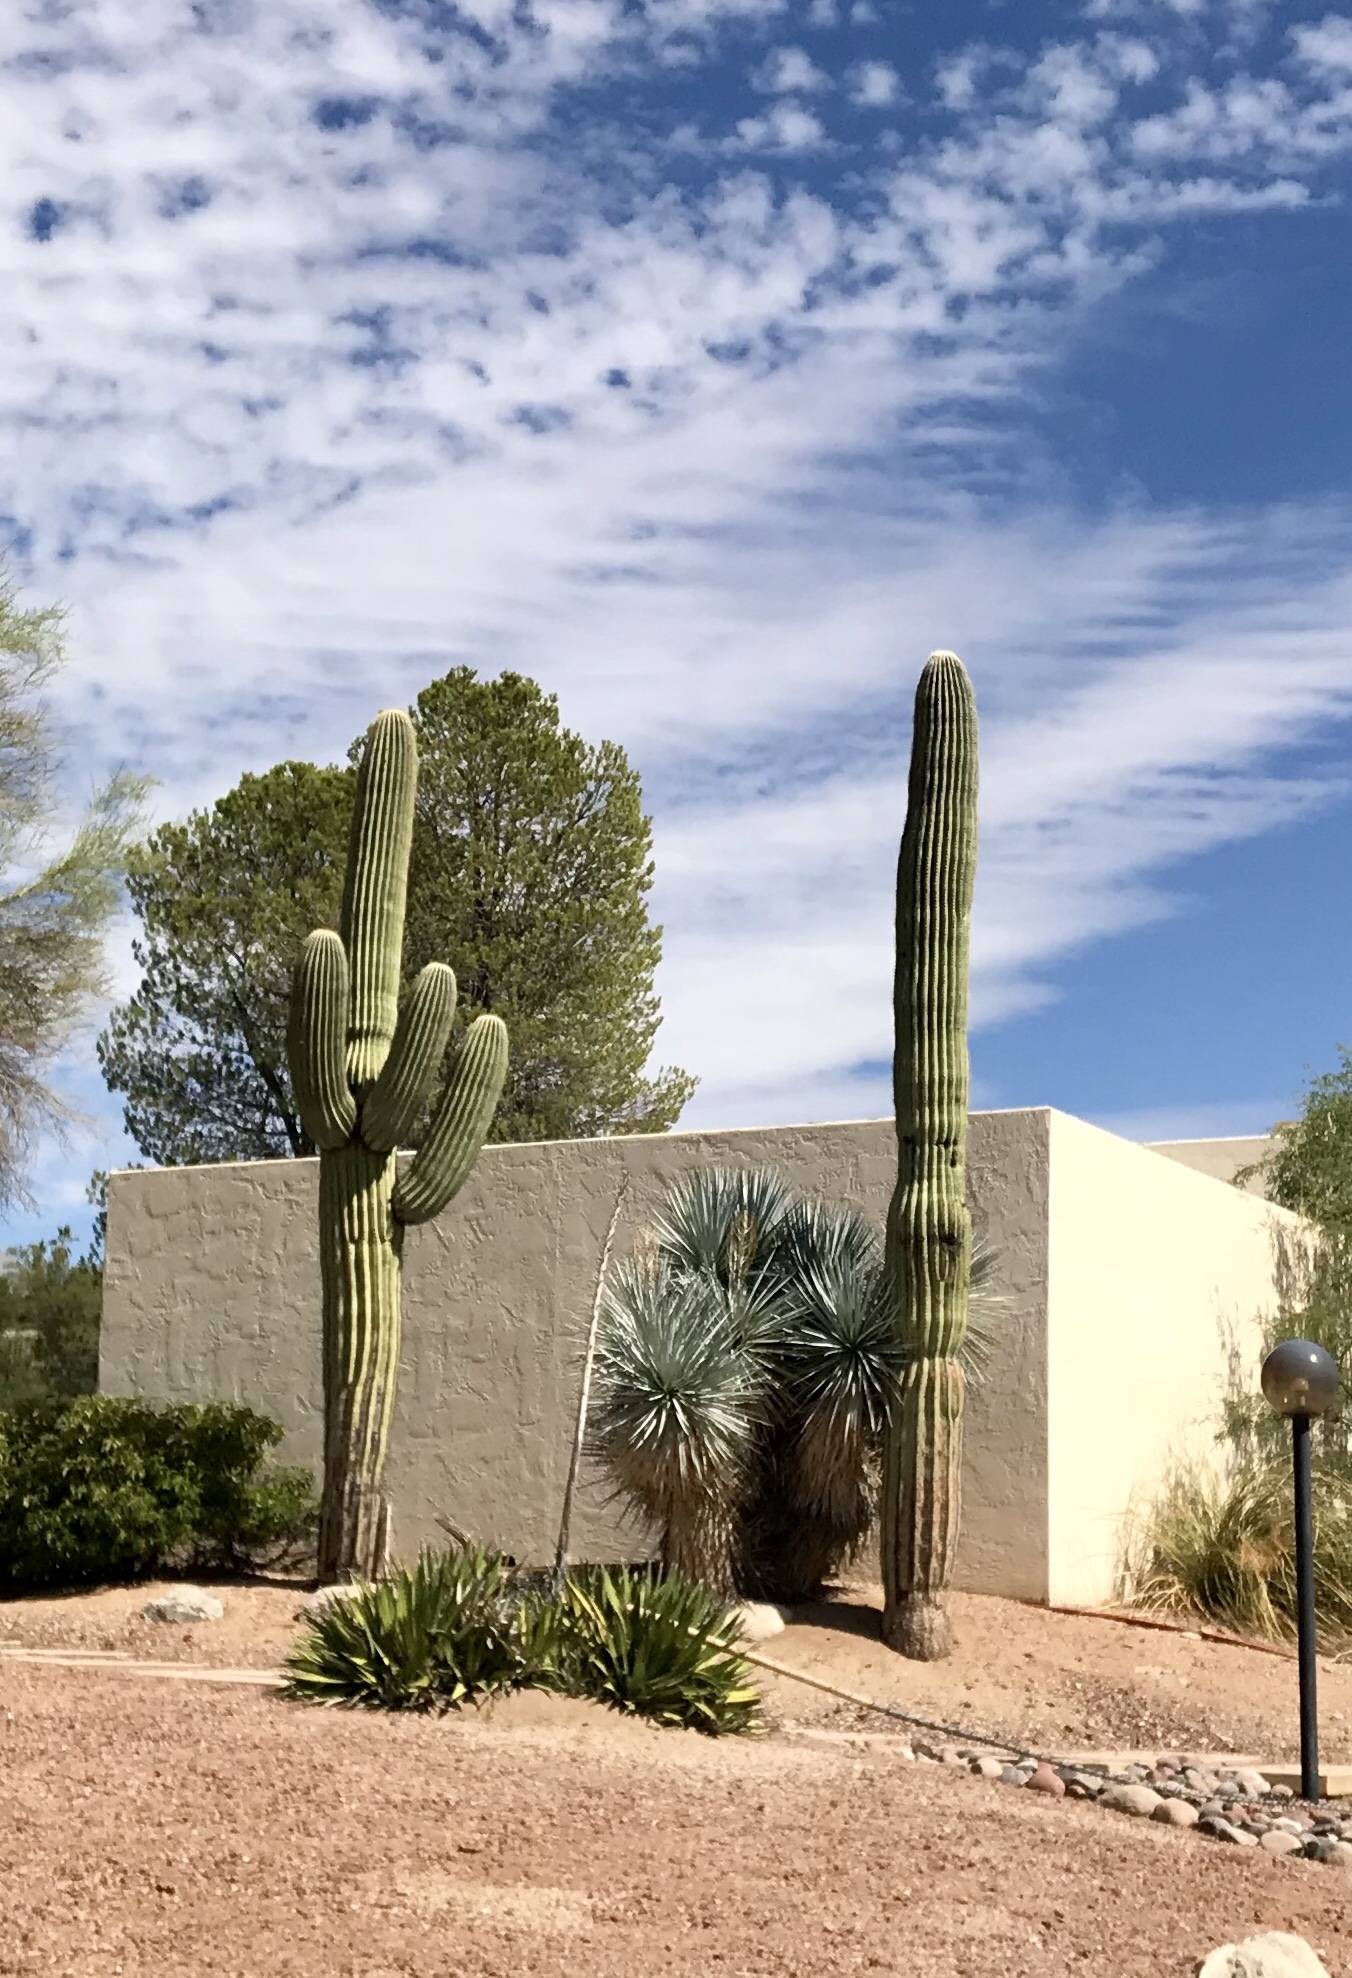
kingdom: Plantae
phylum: Tracheophyta
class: Magnoliopsida
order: Caryophyllales
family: Cactaceae
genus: Carnegiea
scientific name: Carnegiea gigantea
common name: Saguaro
